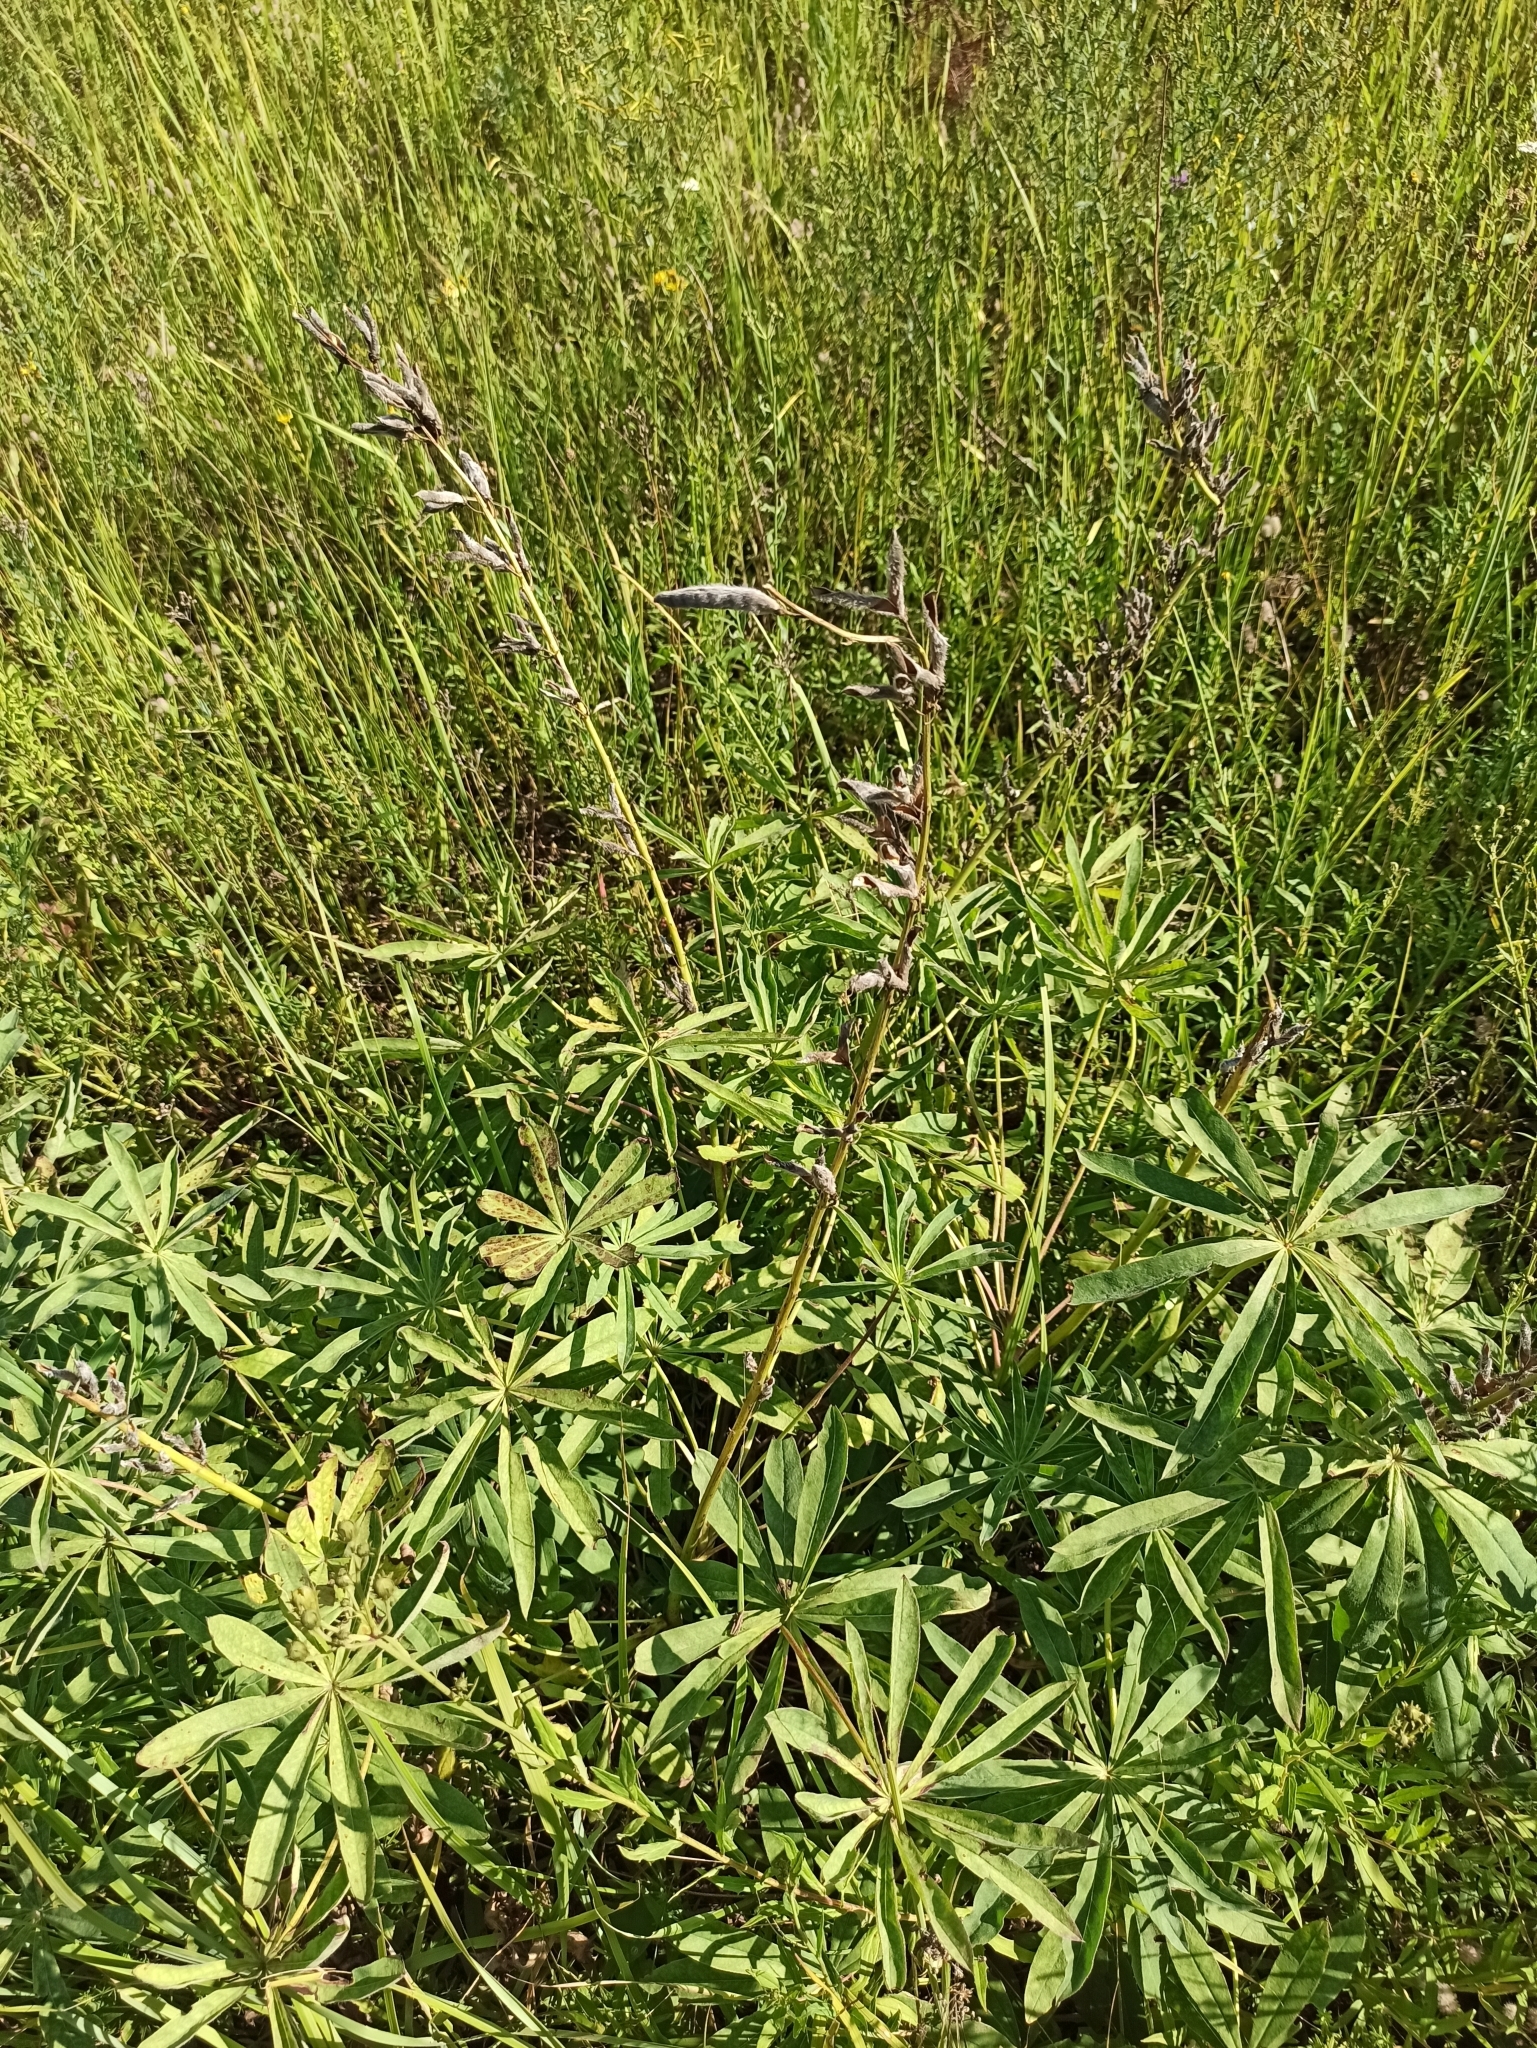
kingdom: Plantae
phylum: Tracheophyta
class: Magnoliopsida
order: Fabales
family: Fabaceae
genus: Lupinus
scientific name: Lupinus polyphyllus
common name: Garden lupin
